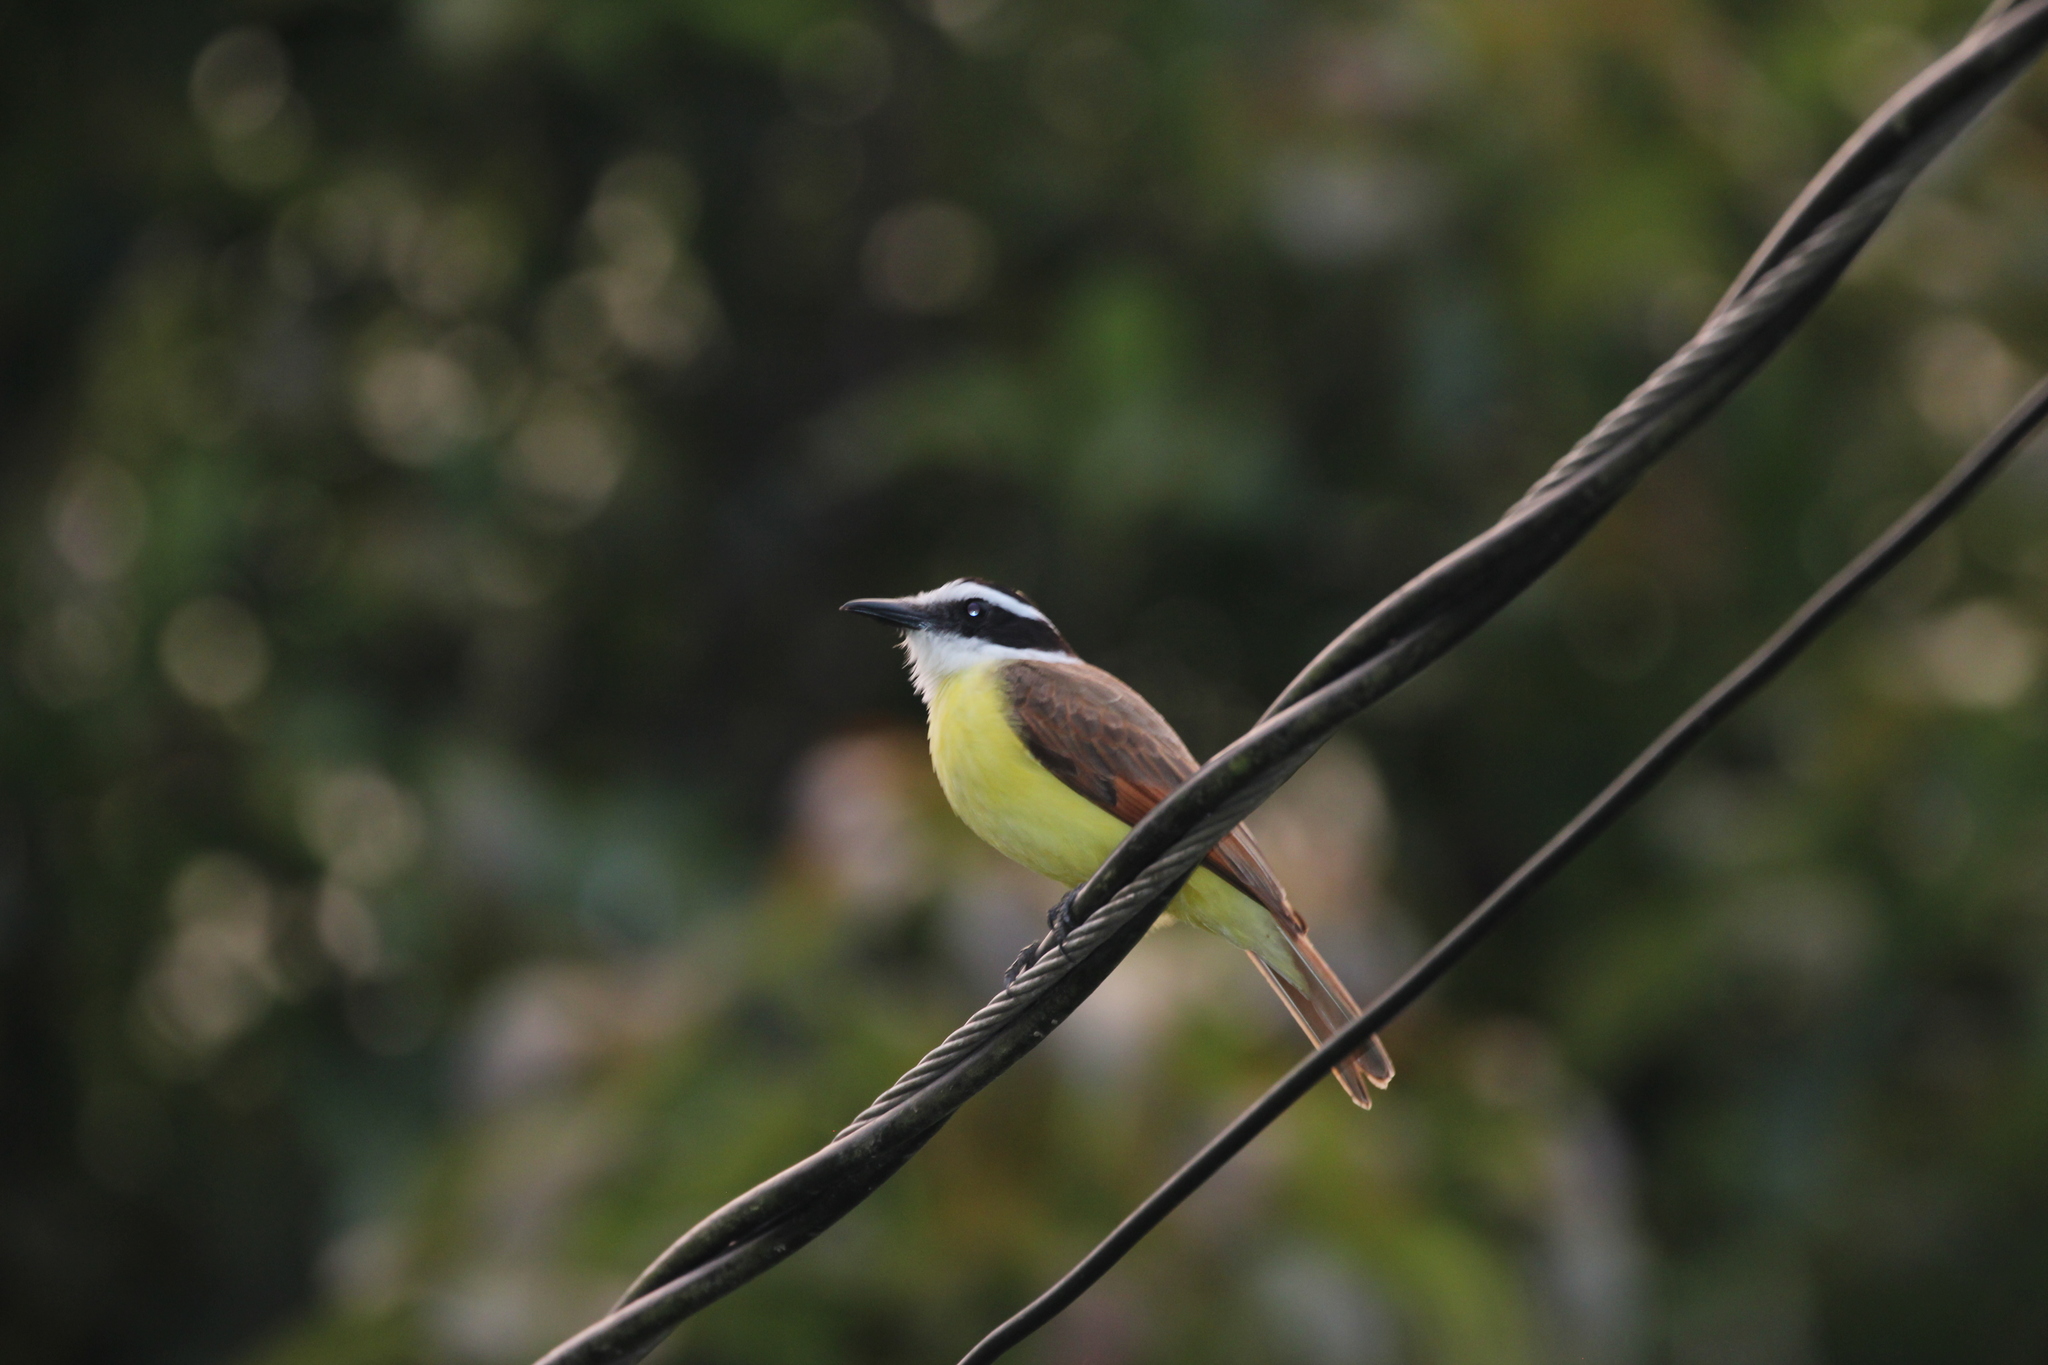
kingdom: Animalia
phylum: Chordata
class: Aves
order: Passeriformes
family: Tyrannidae
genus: Pitangus
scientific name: Pitangus sulphuratus
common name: Great kiskadee
